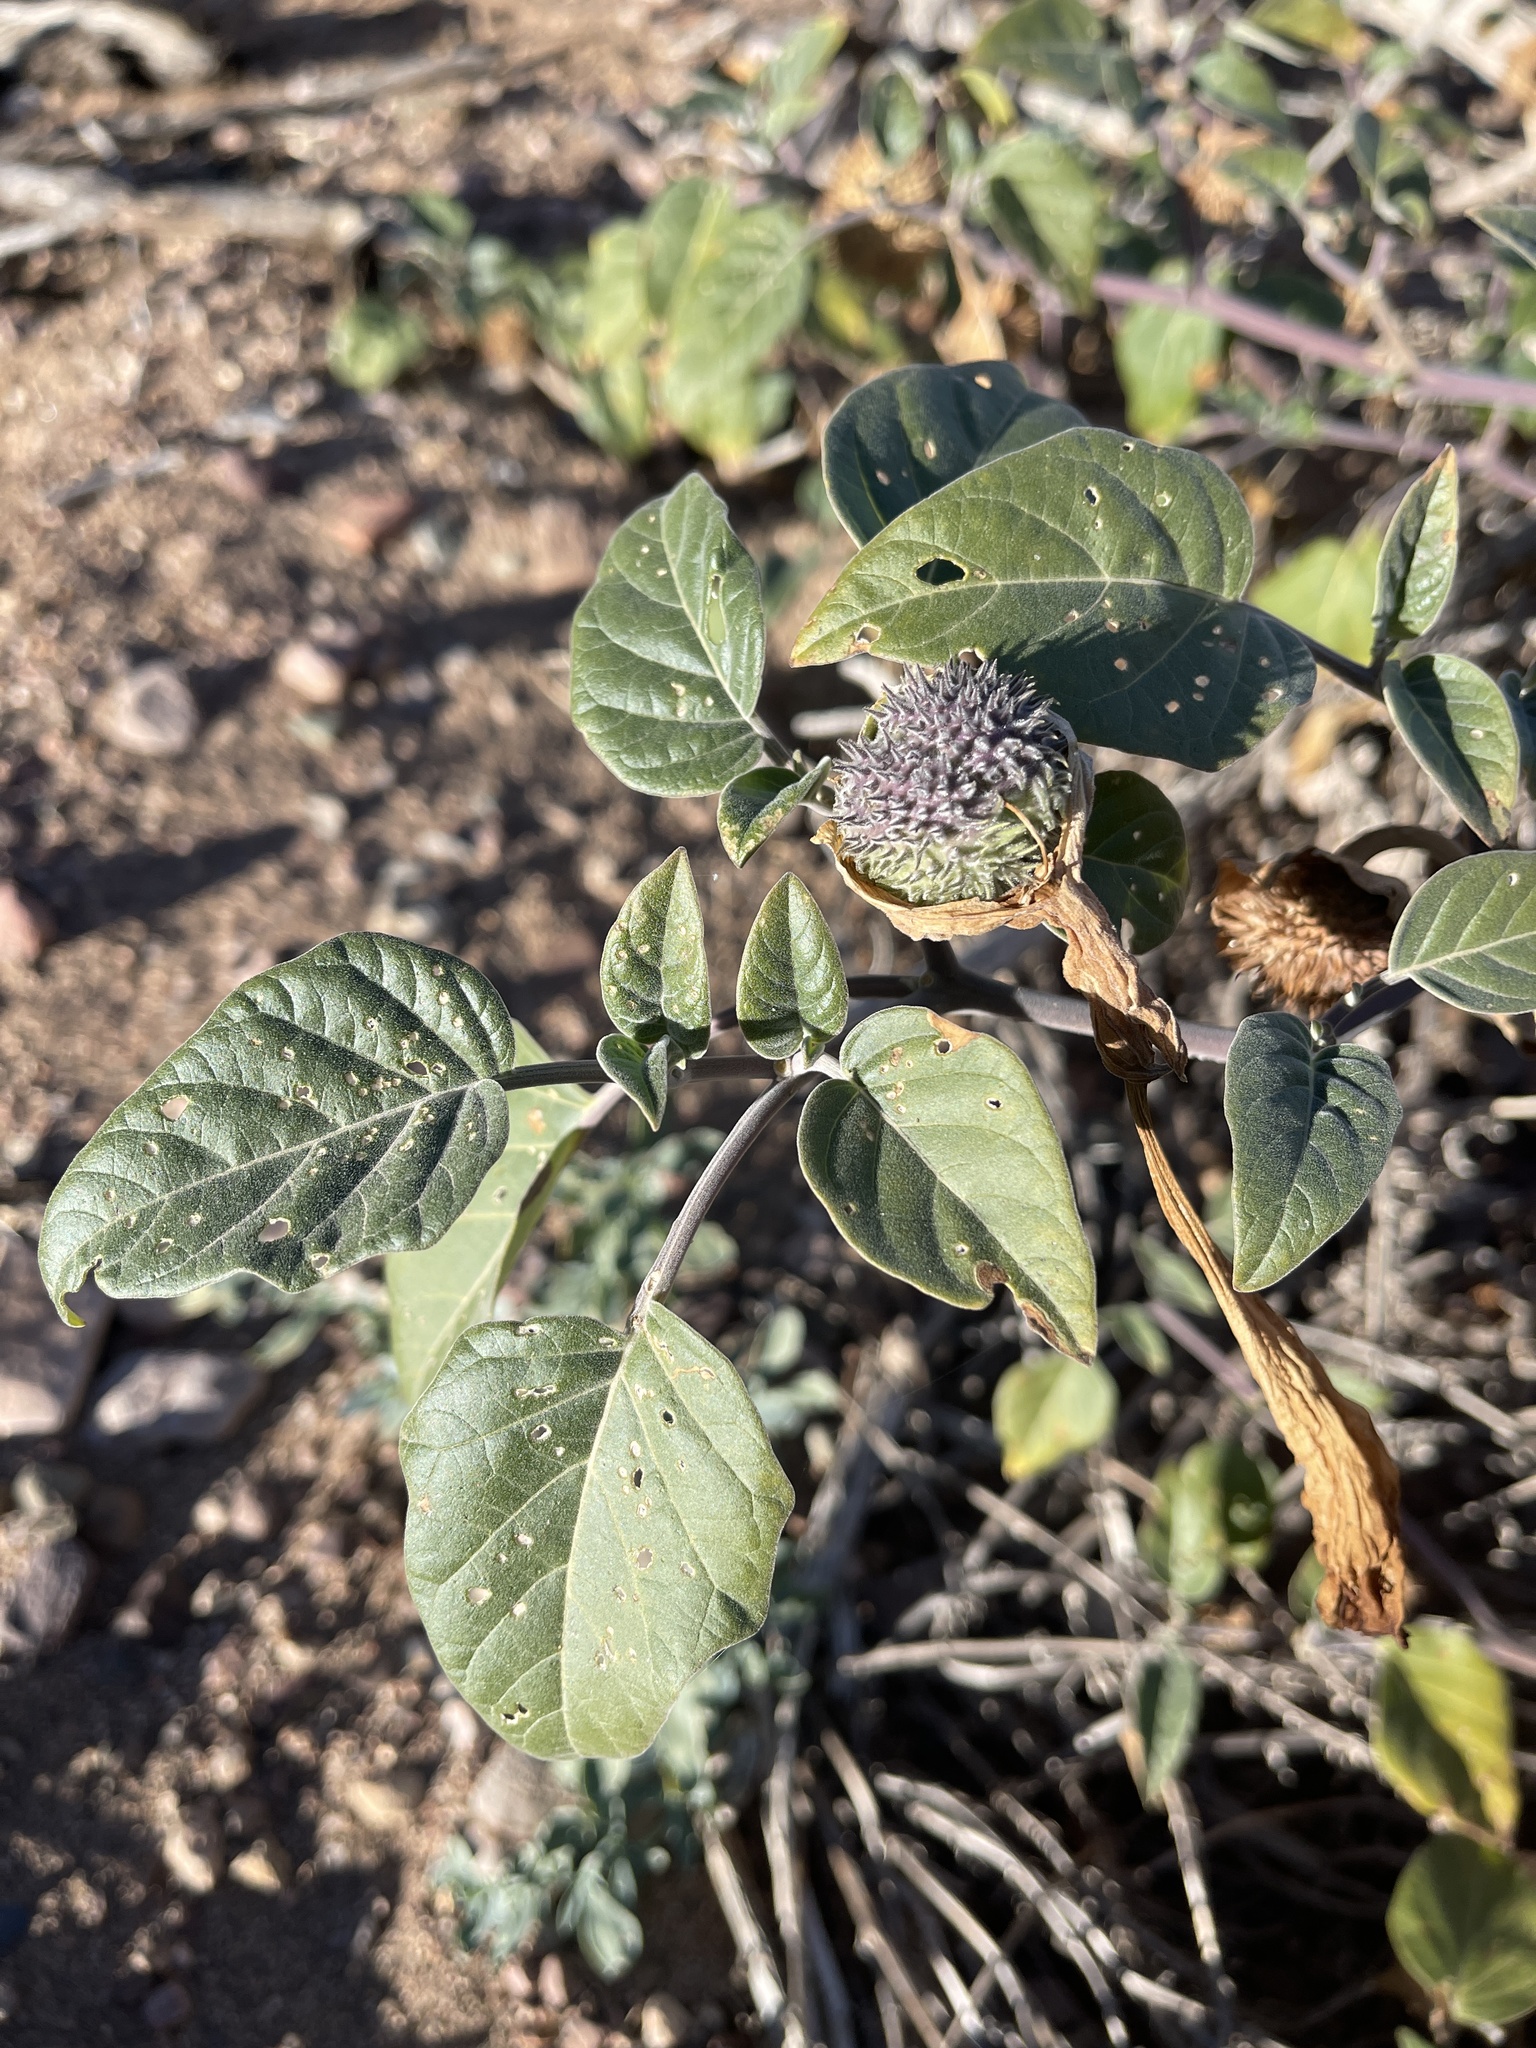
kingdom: Plantae
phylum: Tracheophyta
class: Magnoliopsida
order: Solanales
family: Solanaceae
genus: Datura
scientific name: Datura wrightii
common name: Sacred thorn-apple
